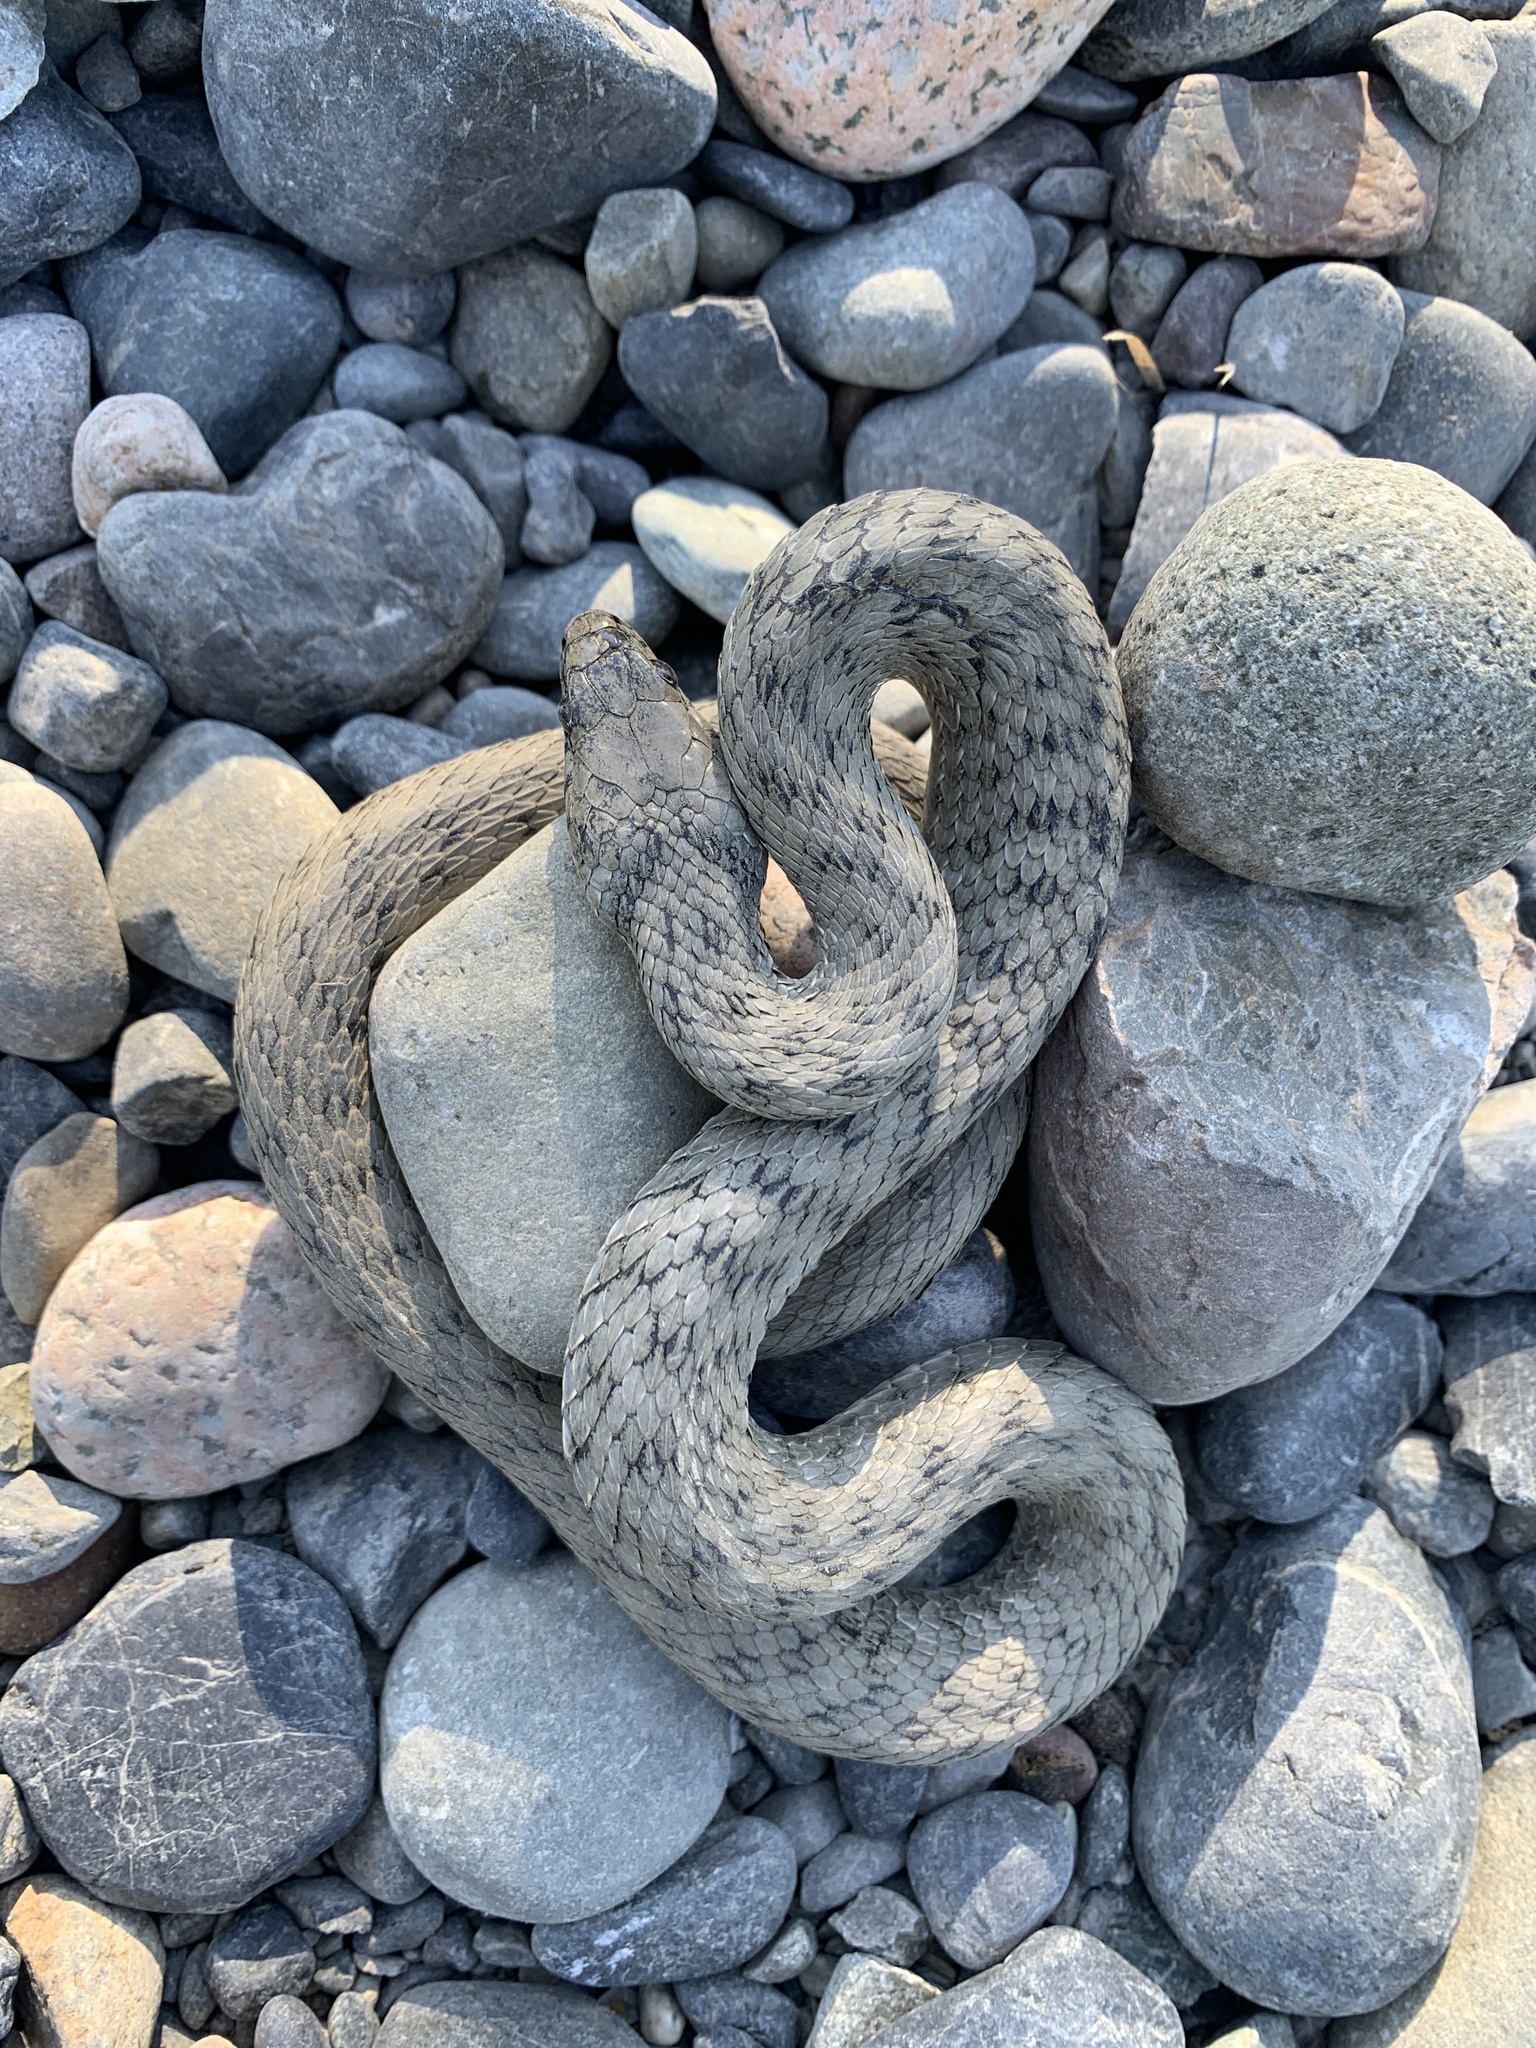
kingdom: Animalia
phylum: Chordata
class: Squamata
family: Colubridae
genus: Natrix
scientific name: Natrix tessellata
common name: Dice snake
